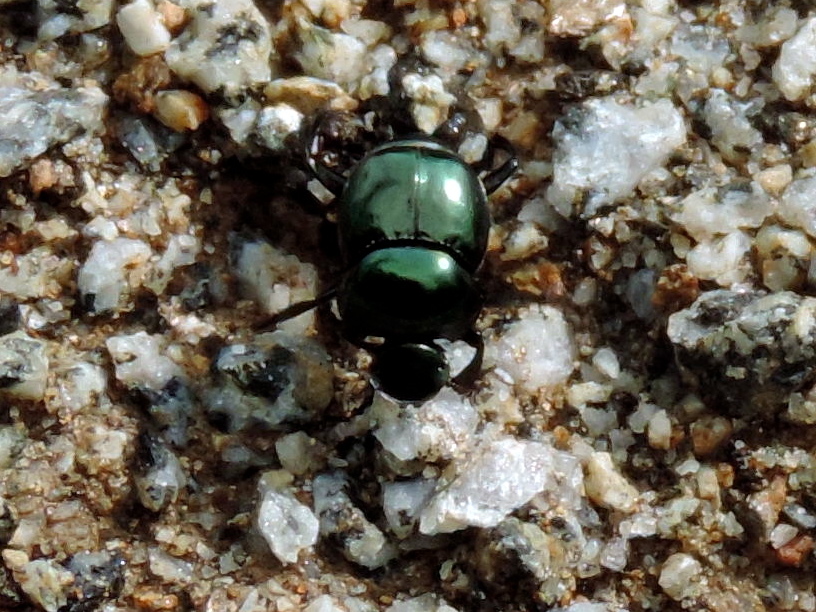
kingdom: Animalia
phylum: Arthropoda
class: Insecta
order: Coleoptera
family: Scarabaeidae
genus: Canthon
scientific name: Canthon
